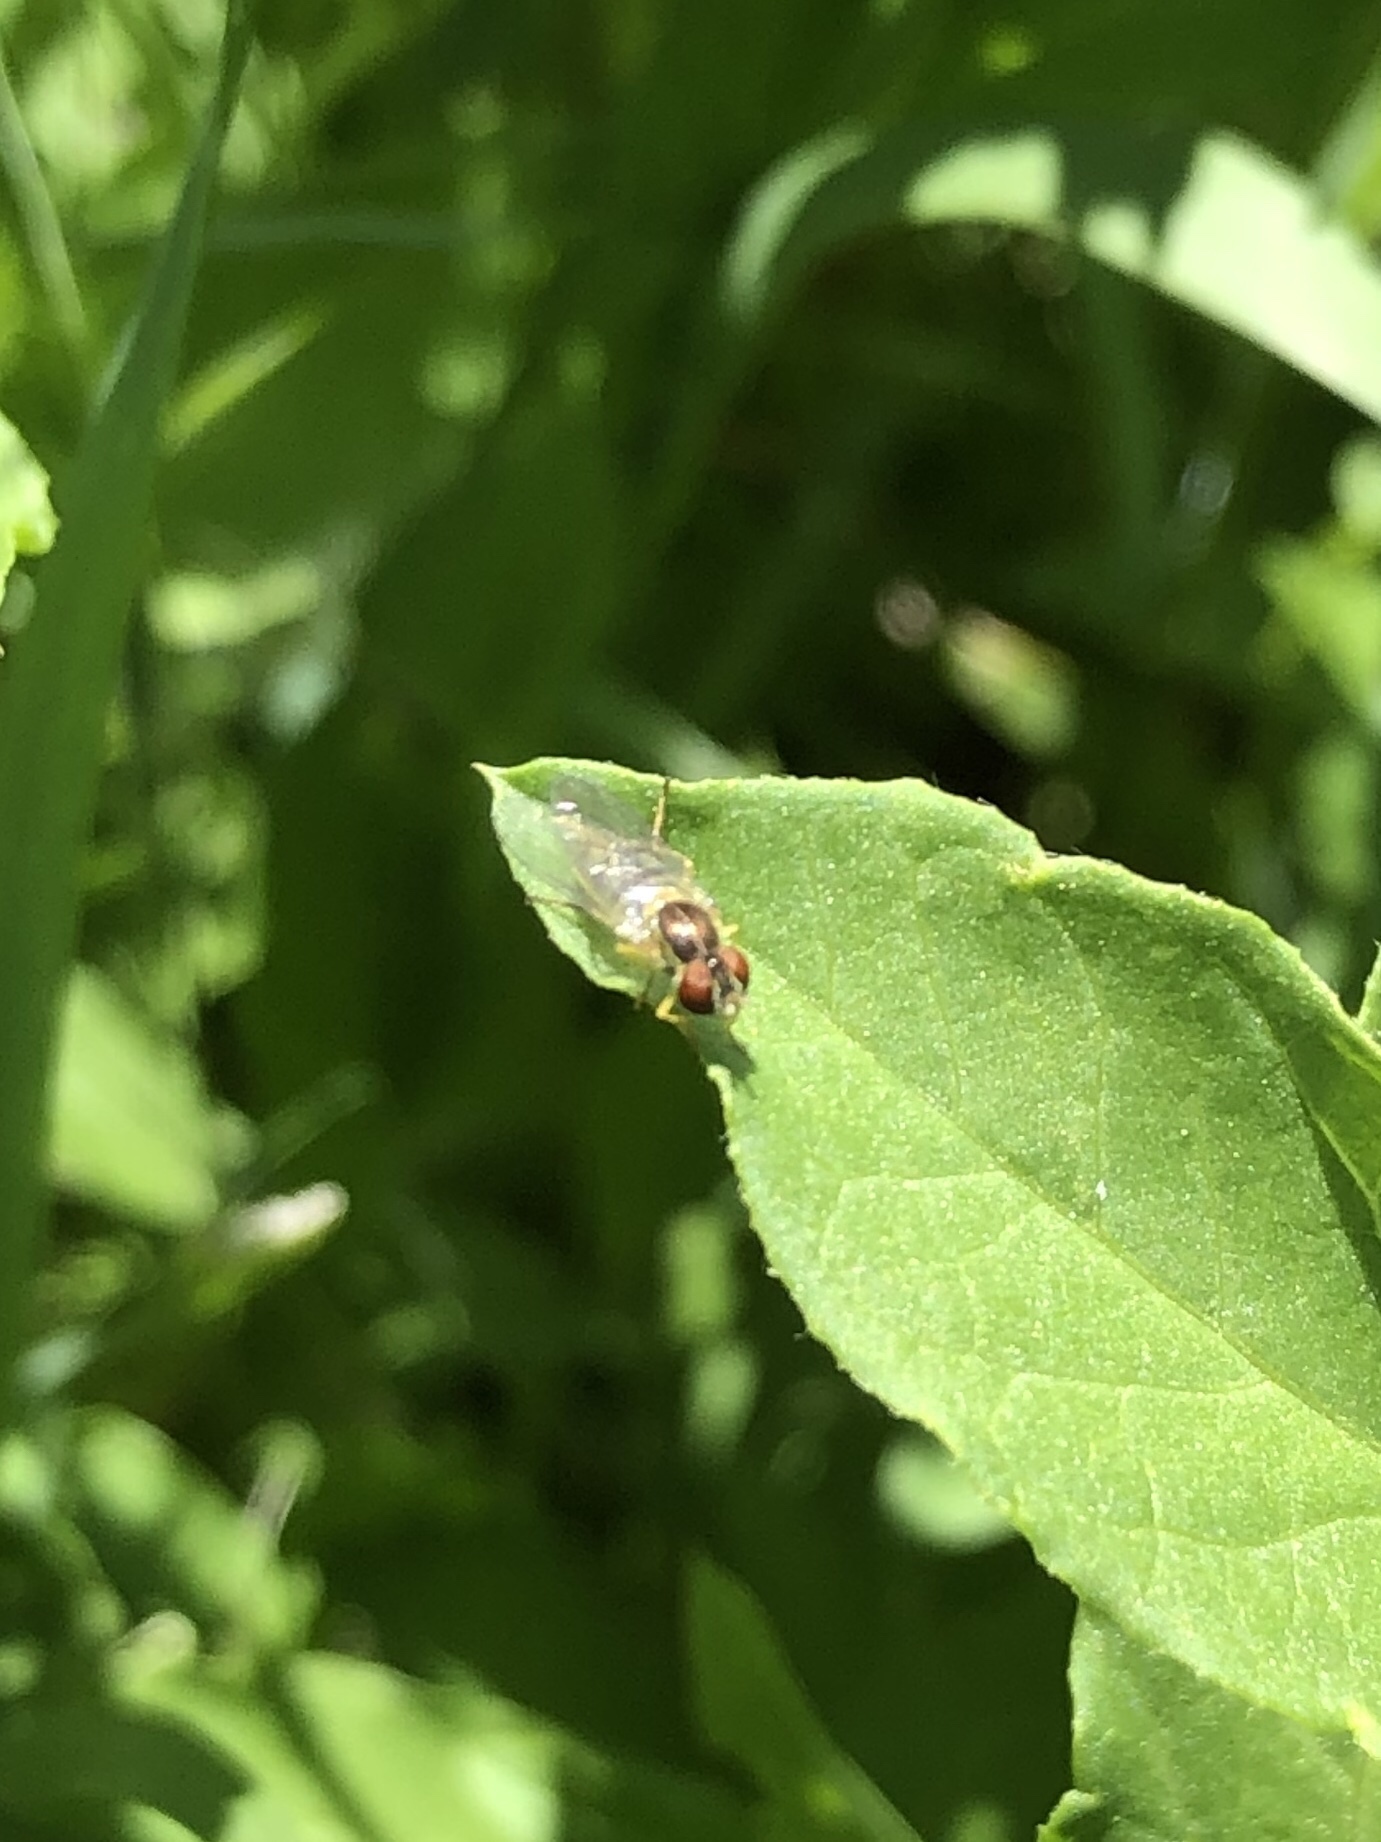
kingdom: Animalia
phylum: Arthropoda
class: Insecta
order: Diptera
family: Syrphidae
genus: Toxomerus
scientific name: Toxomerus marginatus
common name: Syrphid fly
